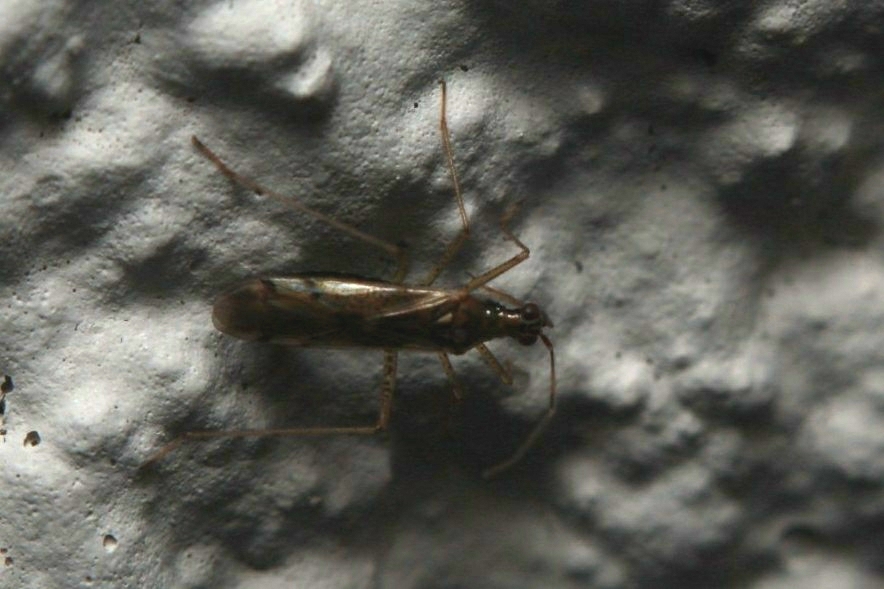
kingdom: Animalia
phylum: Arthropoda
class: Insecta
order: Hemiptera
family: Miridae
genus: Dicyphus
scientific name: Dicyphus errans
